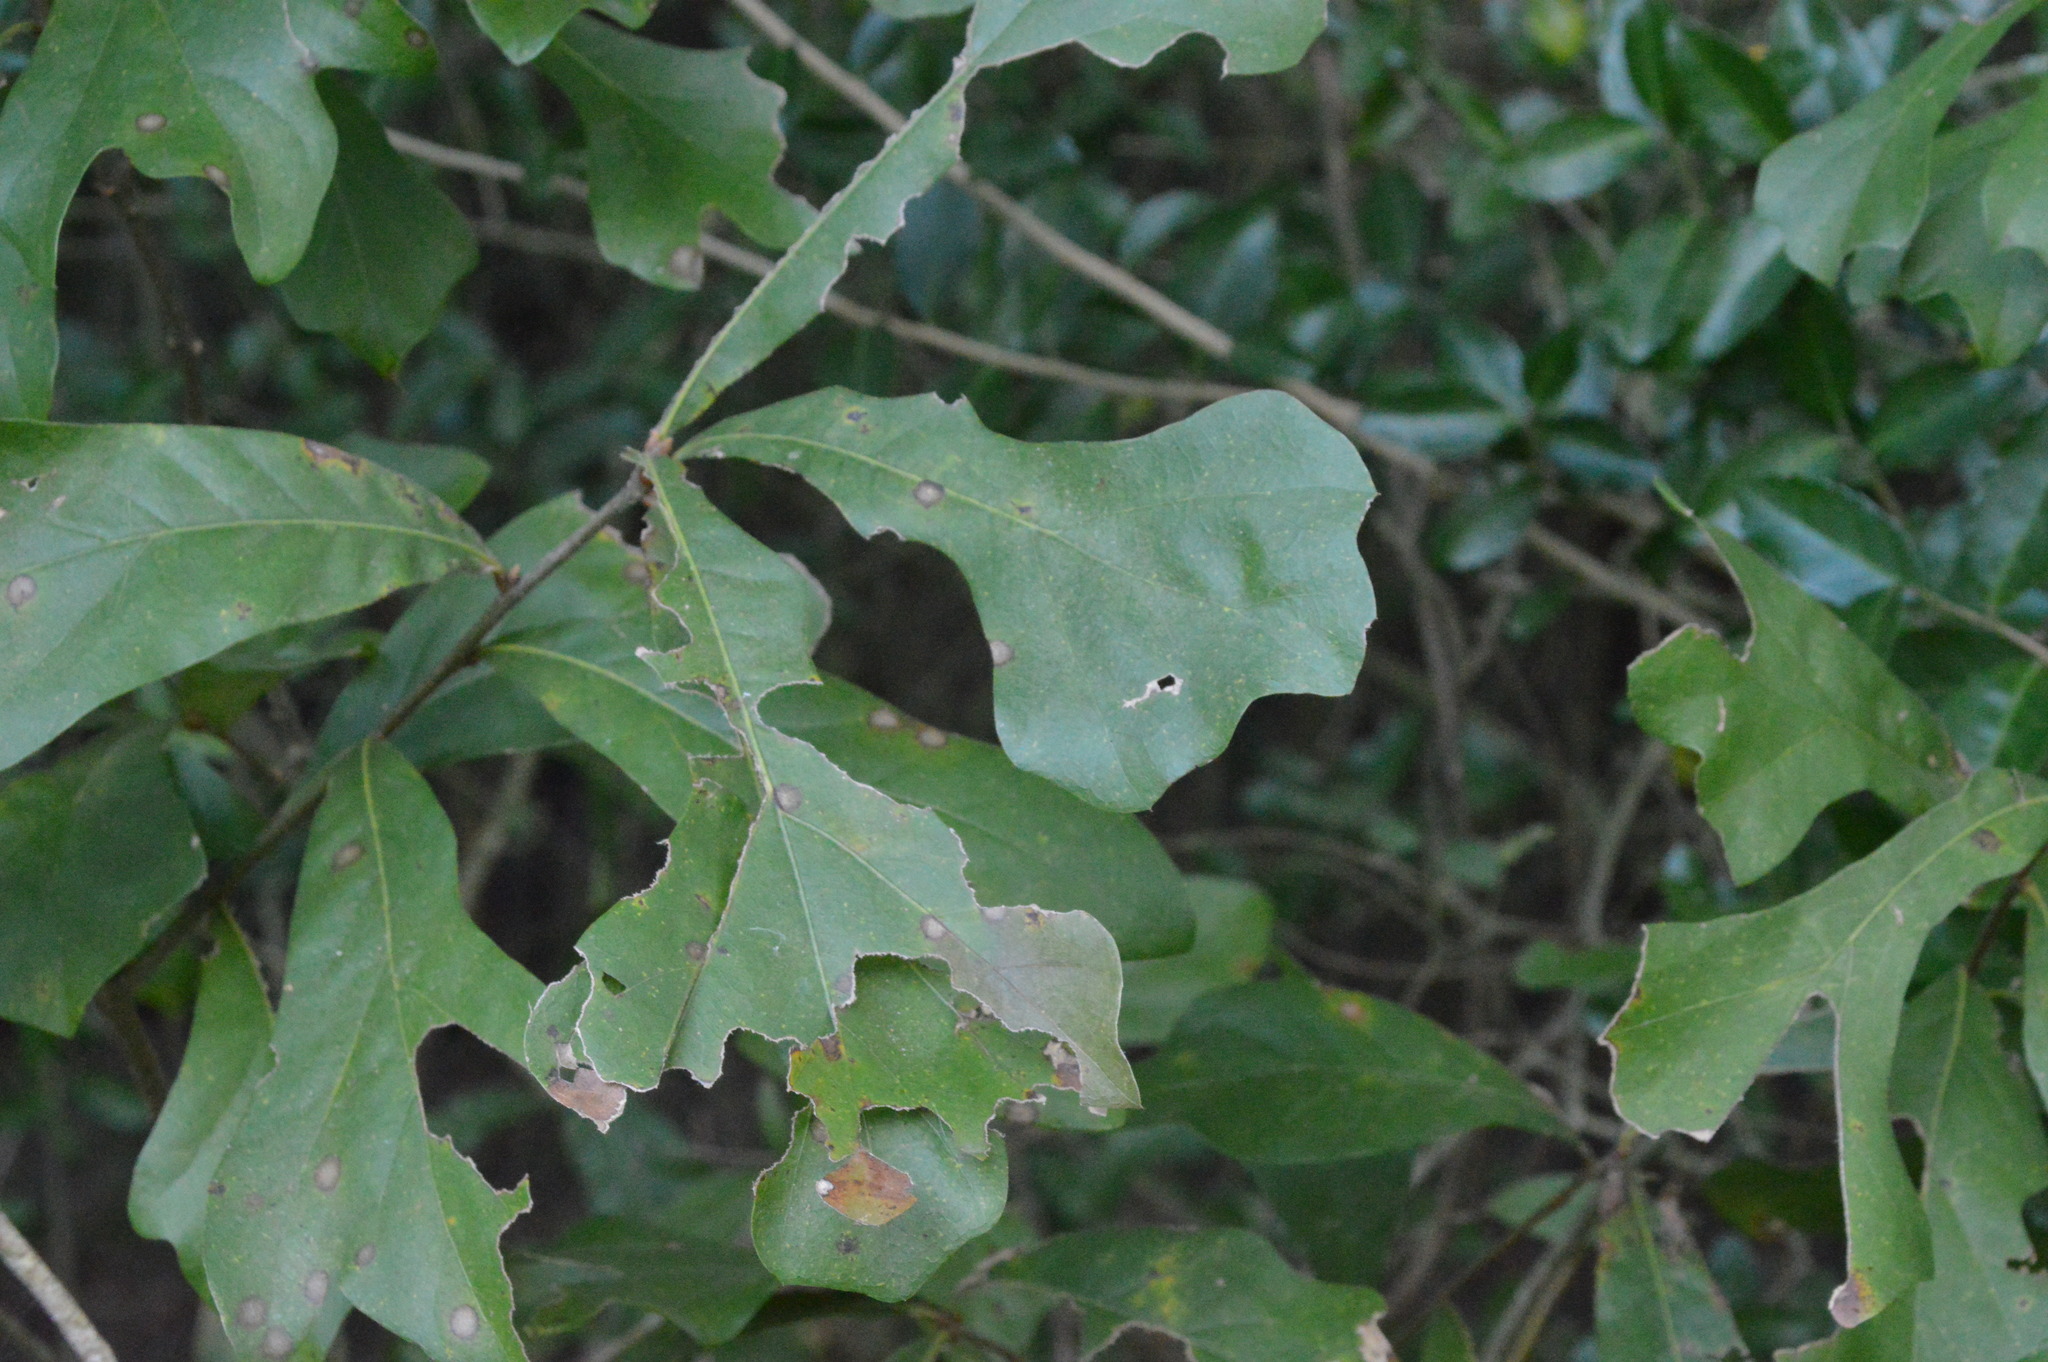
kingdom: Plantae
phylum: Tracheophyta
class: Magnoliopsida
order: Fagales
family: Fagaceae
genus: Quercus
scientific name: Quercus nigra
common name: Water oak
